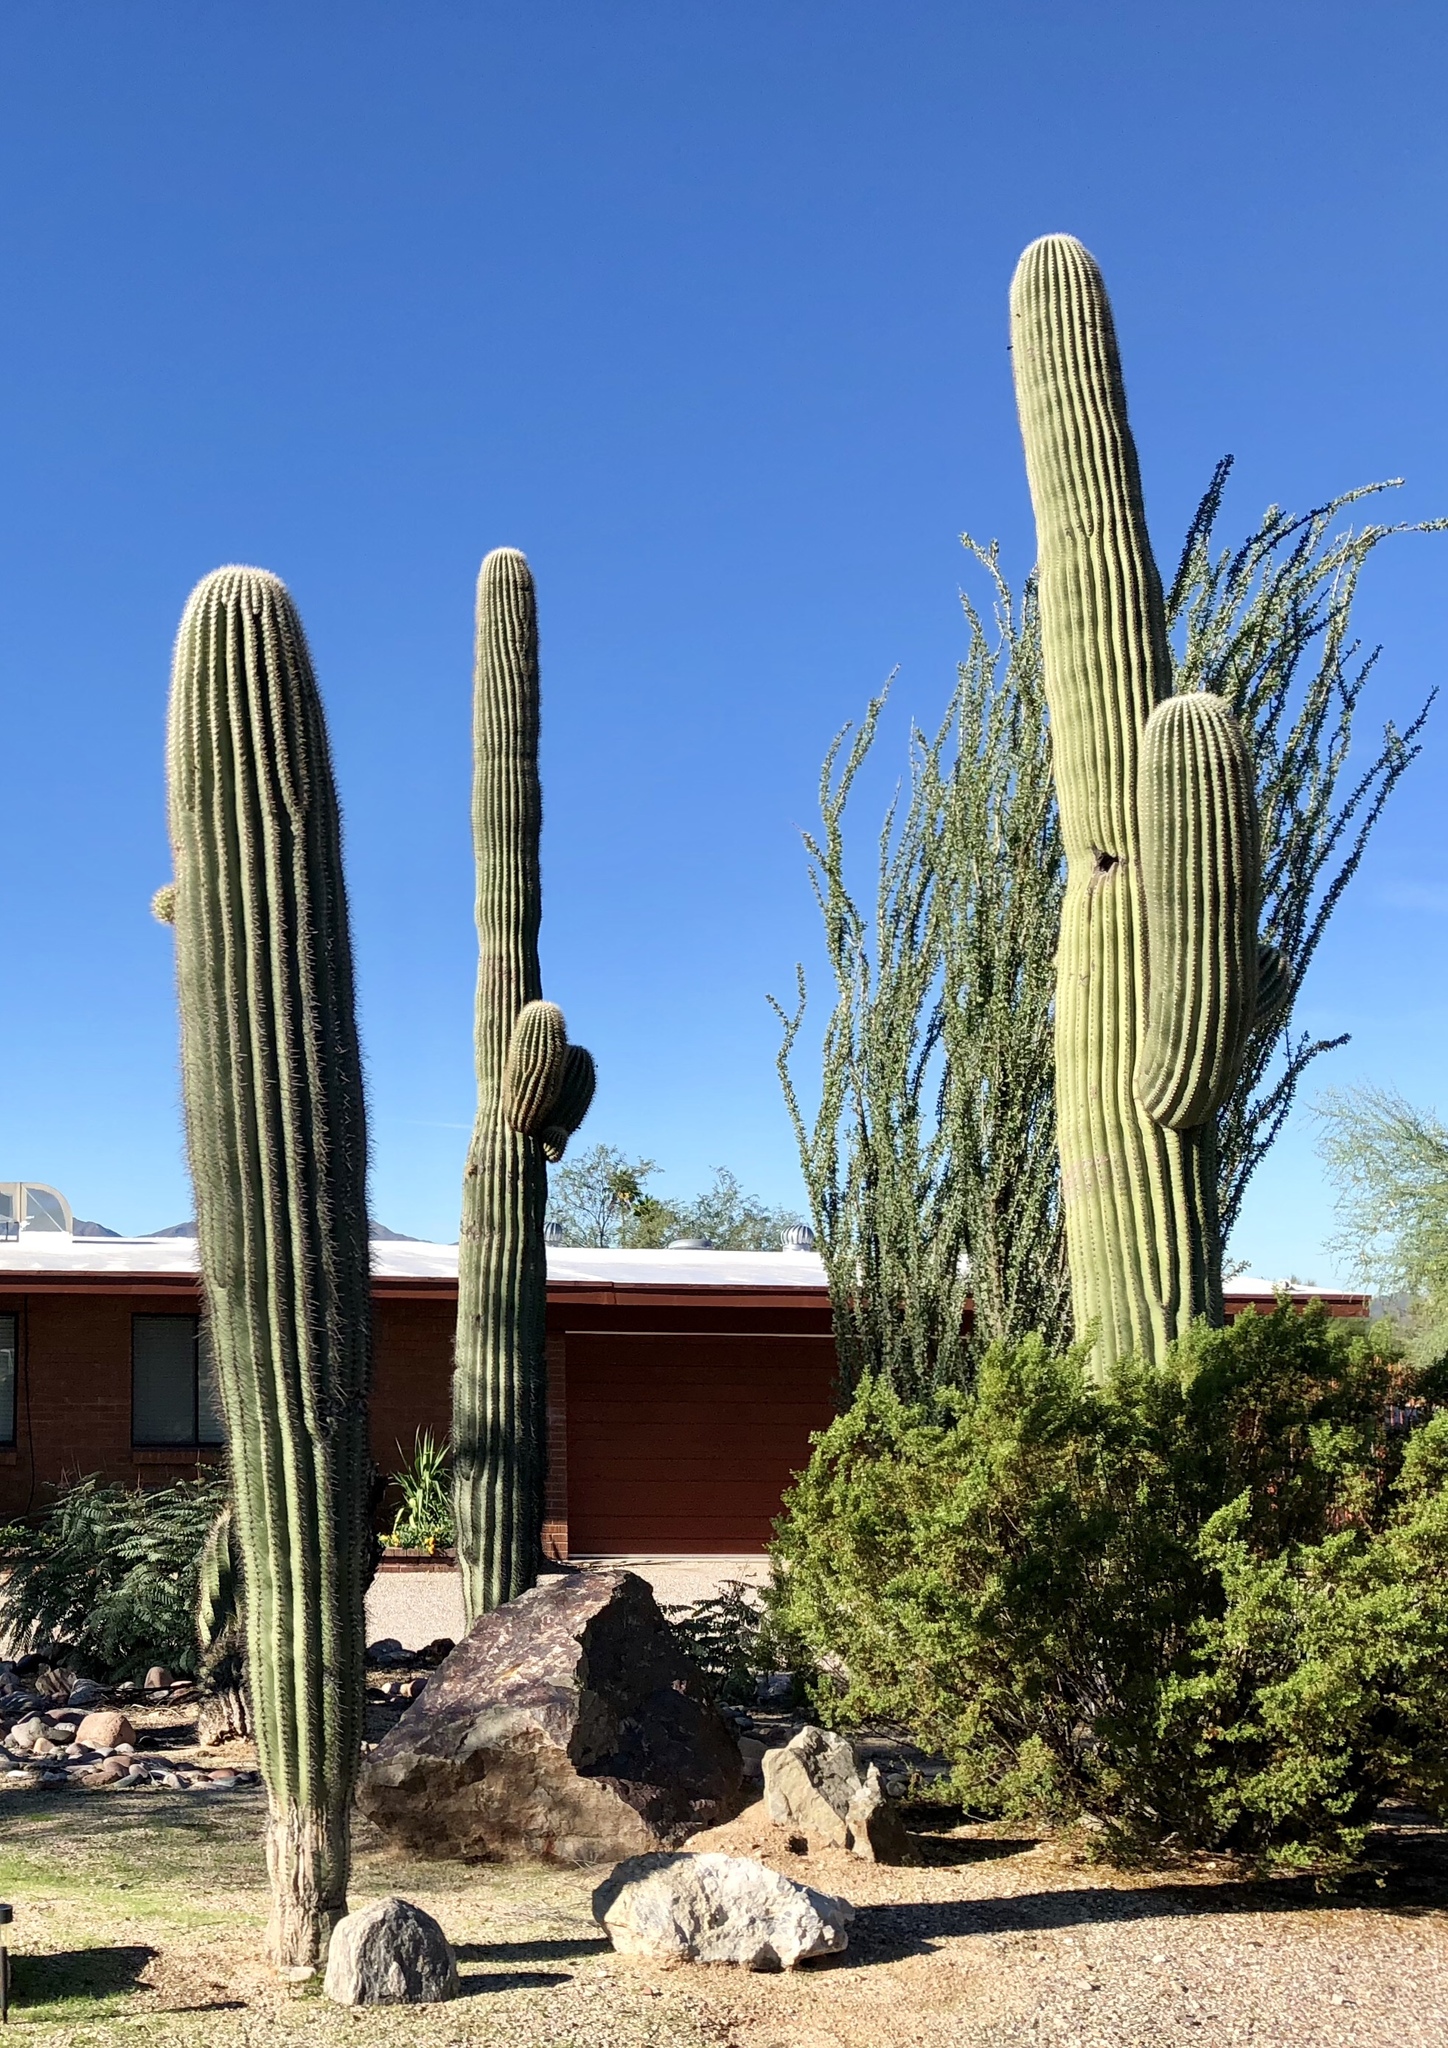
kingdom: Plantae
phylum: Tracheophyta
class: Magnoliopsida
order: Caryophyllales
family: Cactaceae
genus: Carnegiea
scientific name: Carnegiea gigantea
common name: Saguaro
